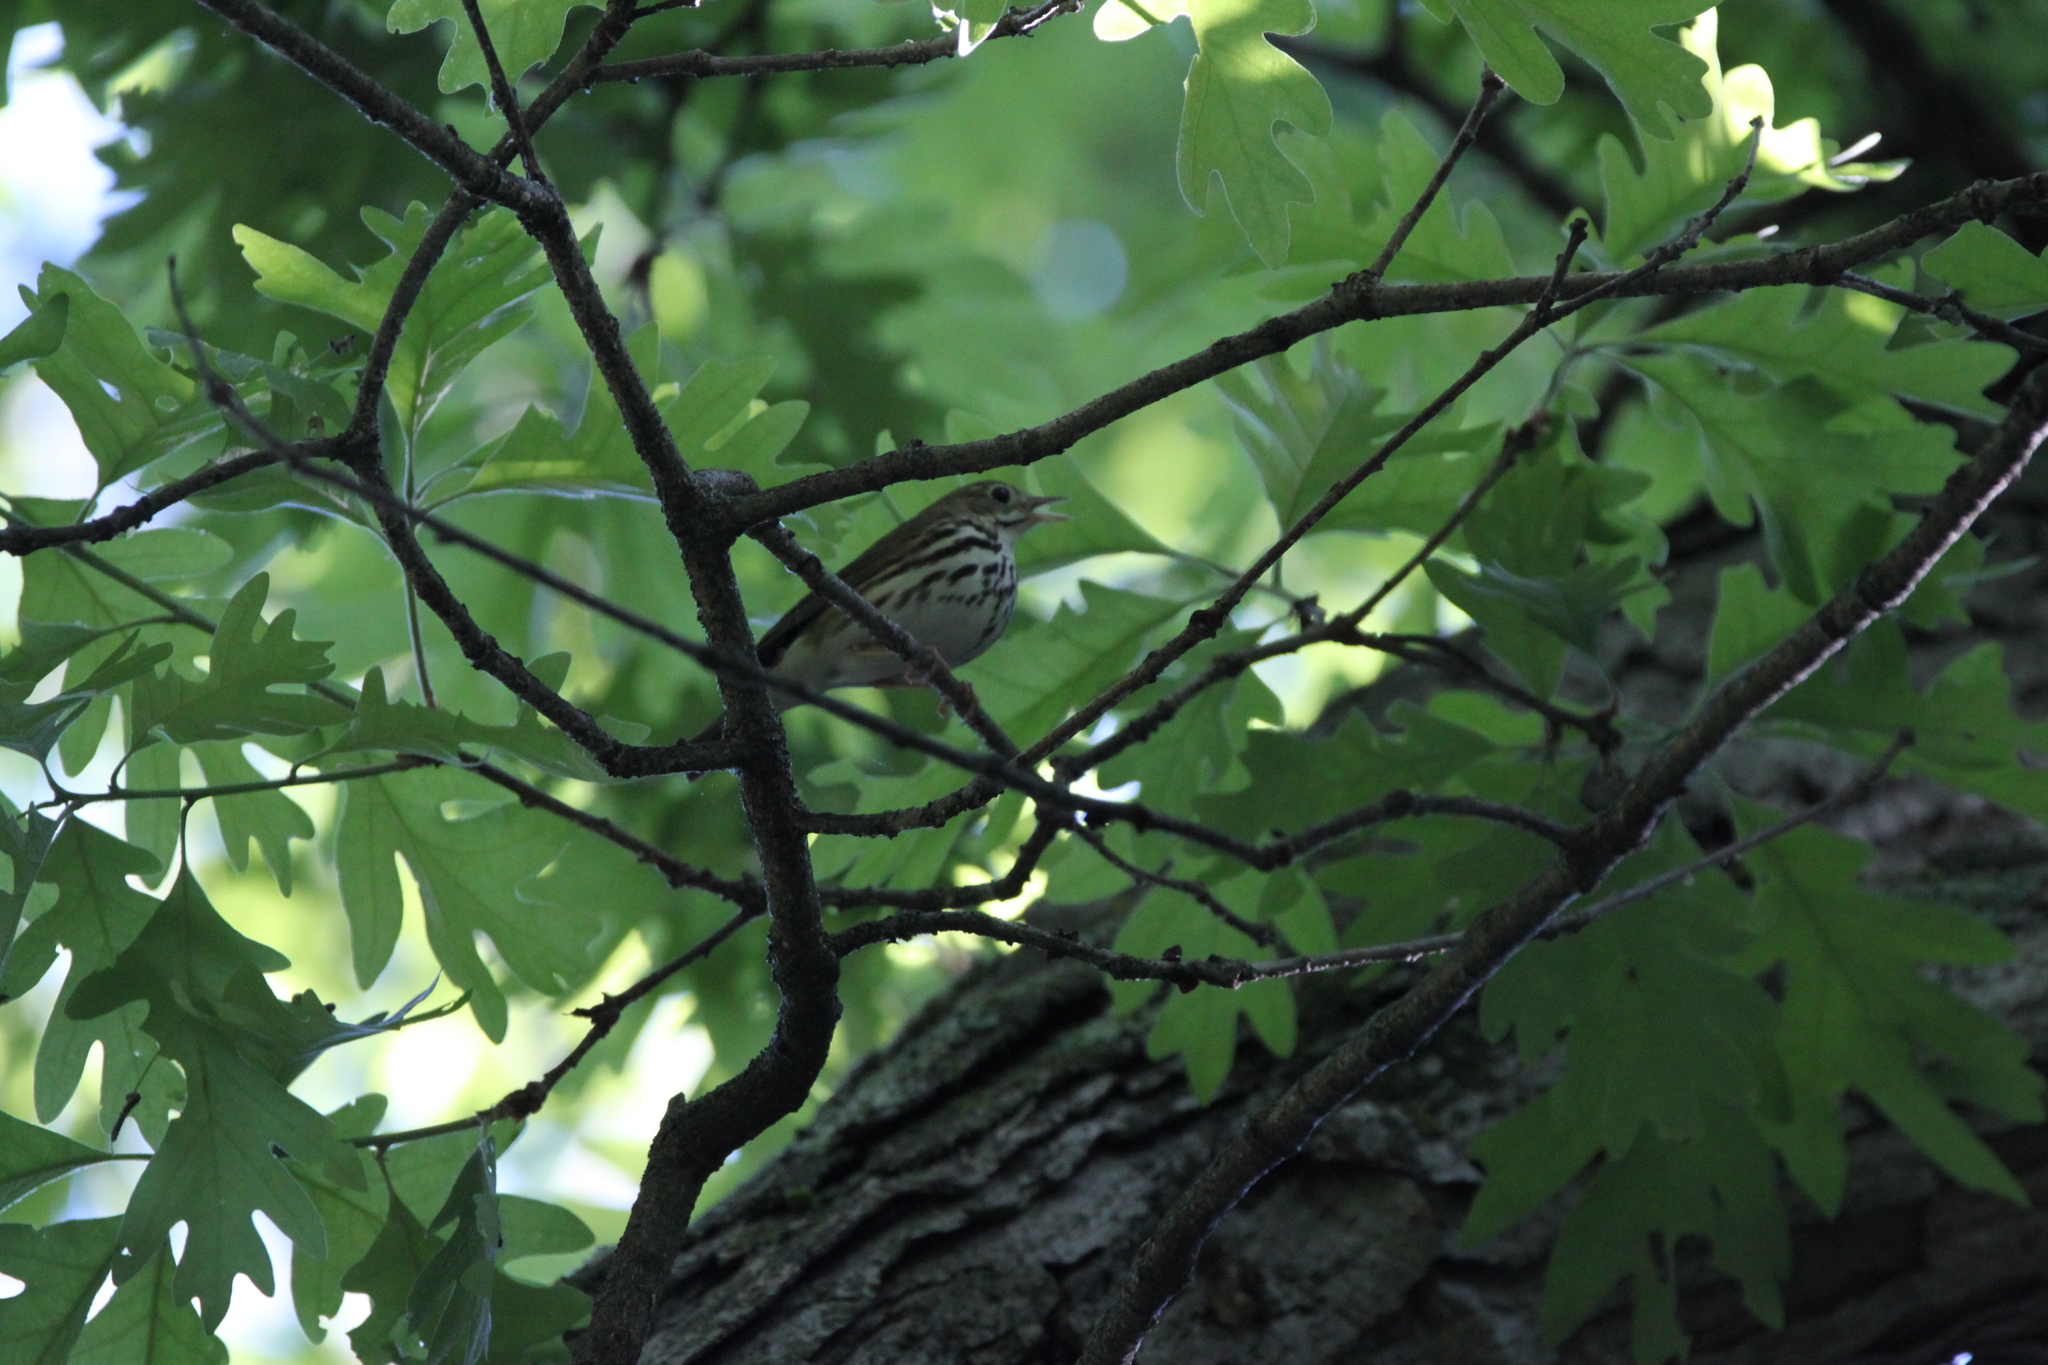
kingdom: Animalia
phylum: Chordata
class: Aves
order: Passeriformes
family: Parulidae
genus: Seiurus
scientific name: Seiurus aurocapilla
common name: Ovenbird
